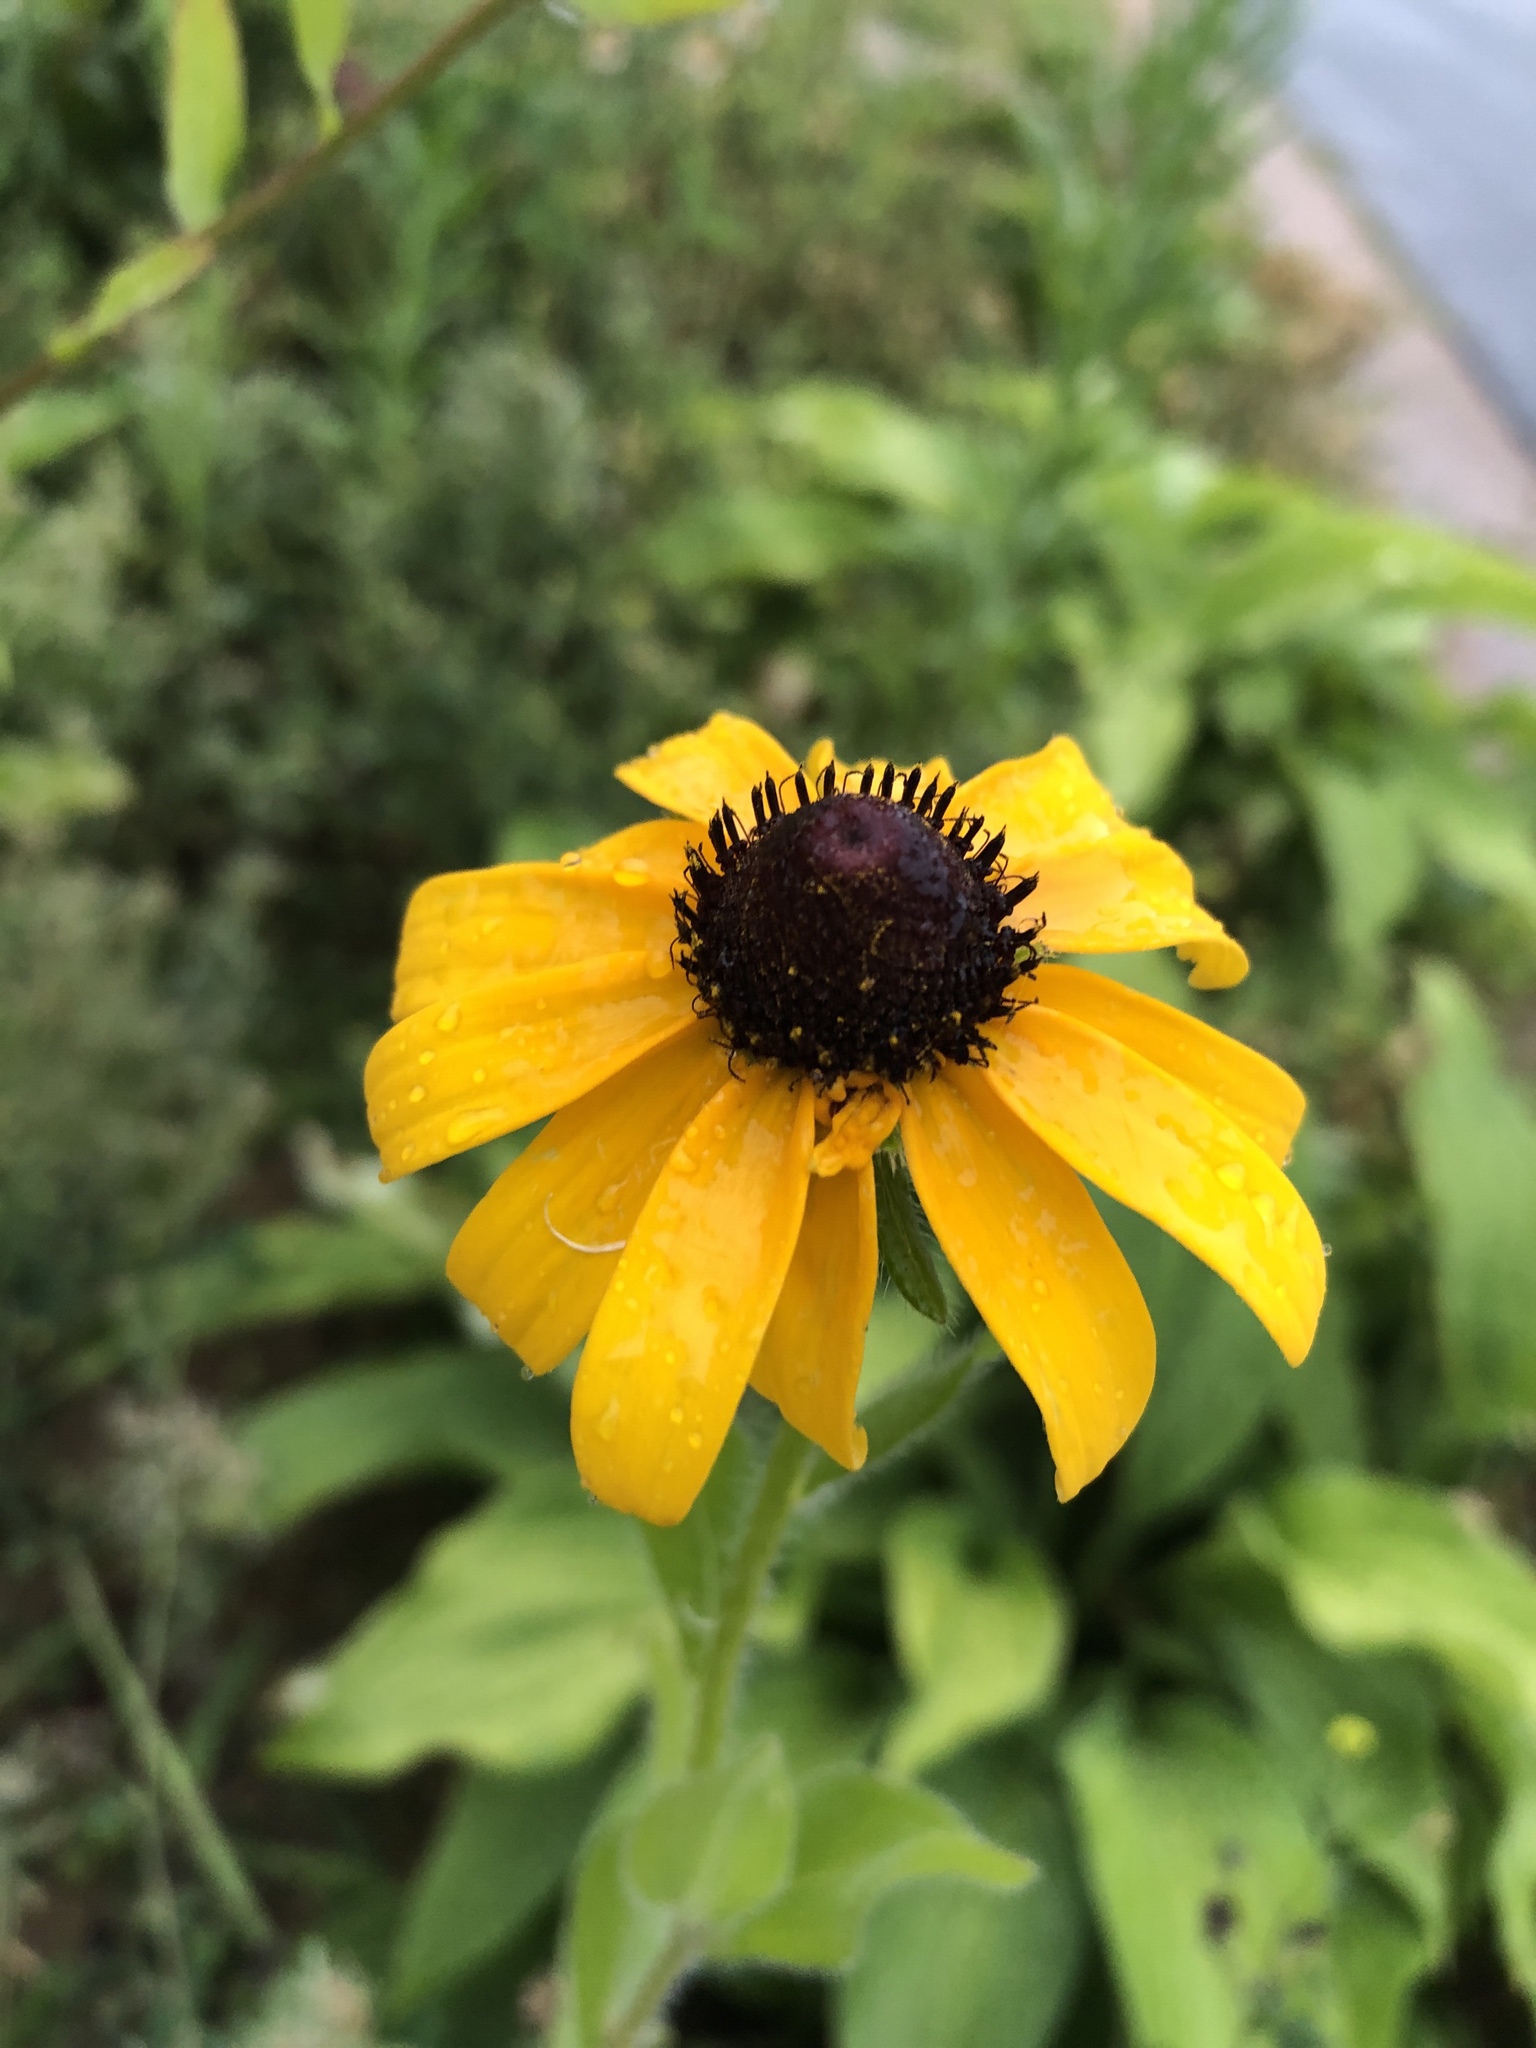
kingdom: Plantae
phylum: Tracheophyta
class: Magnoliopsida
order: Asterales
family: Asteraceae
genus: Rudbeckia
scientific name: Rudbeckia hirta
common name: Black-eyed-susan
